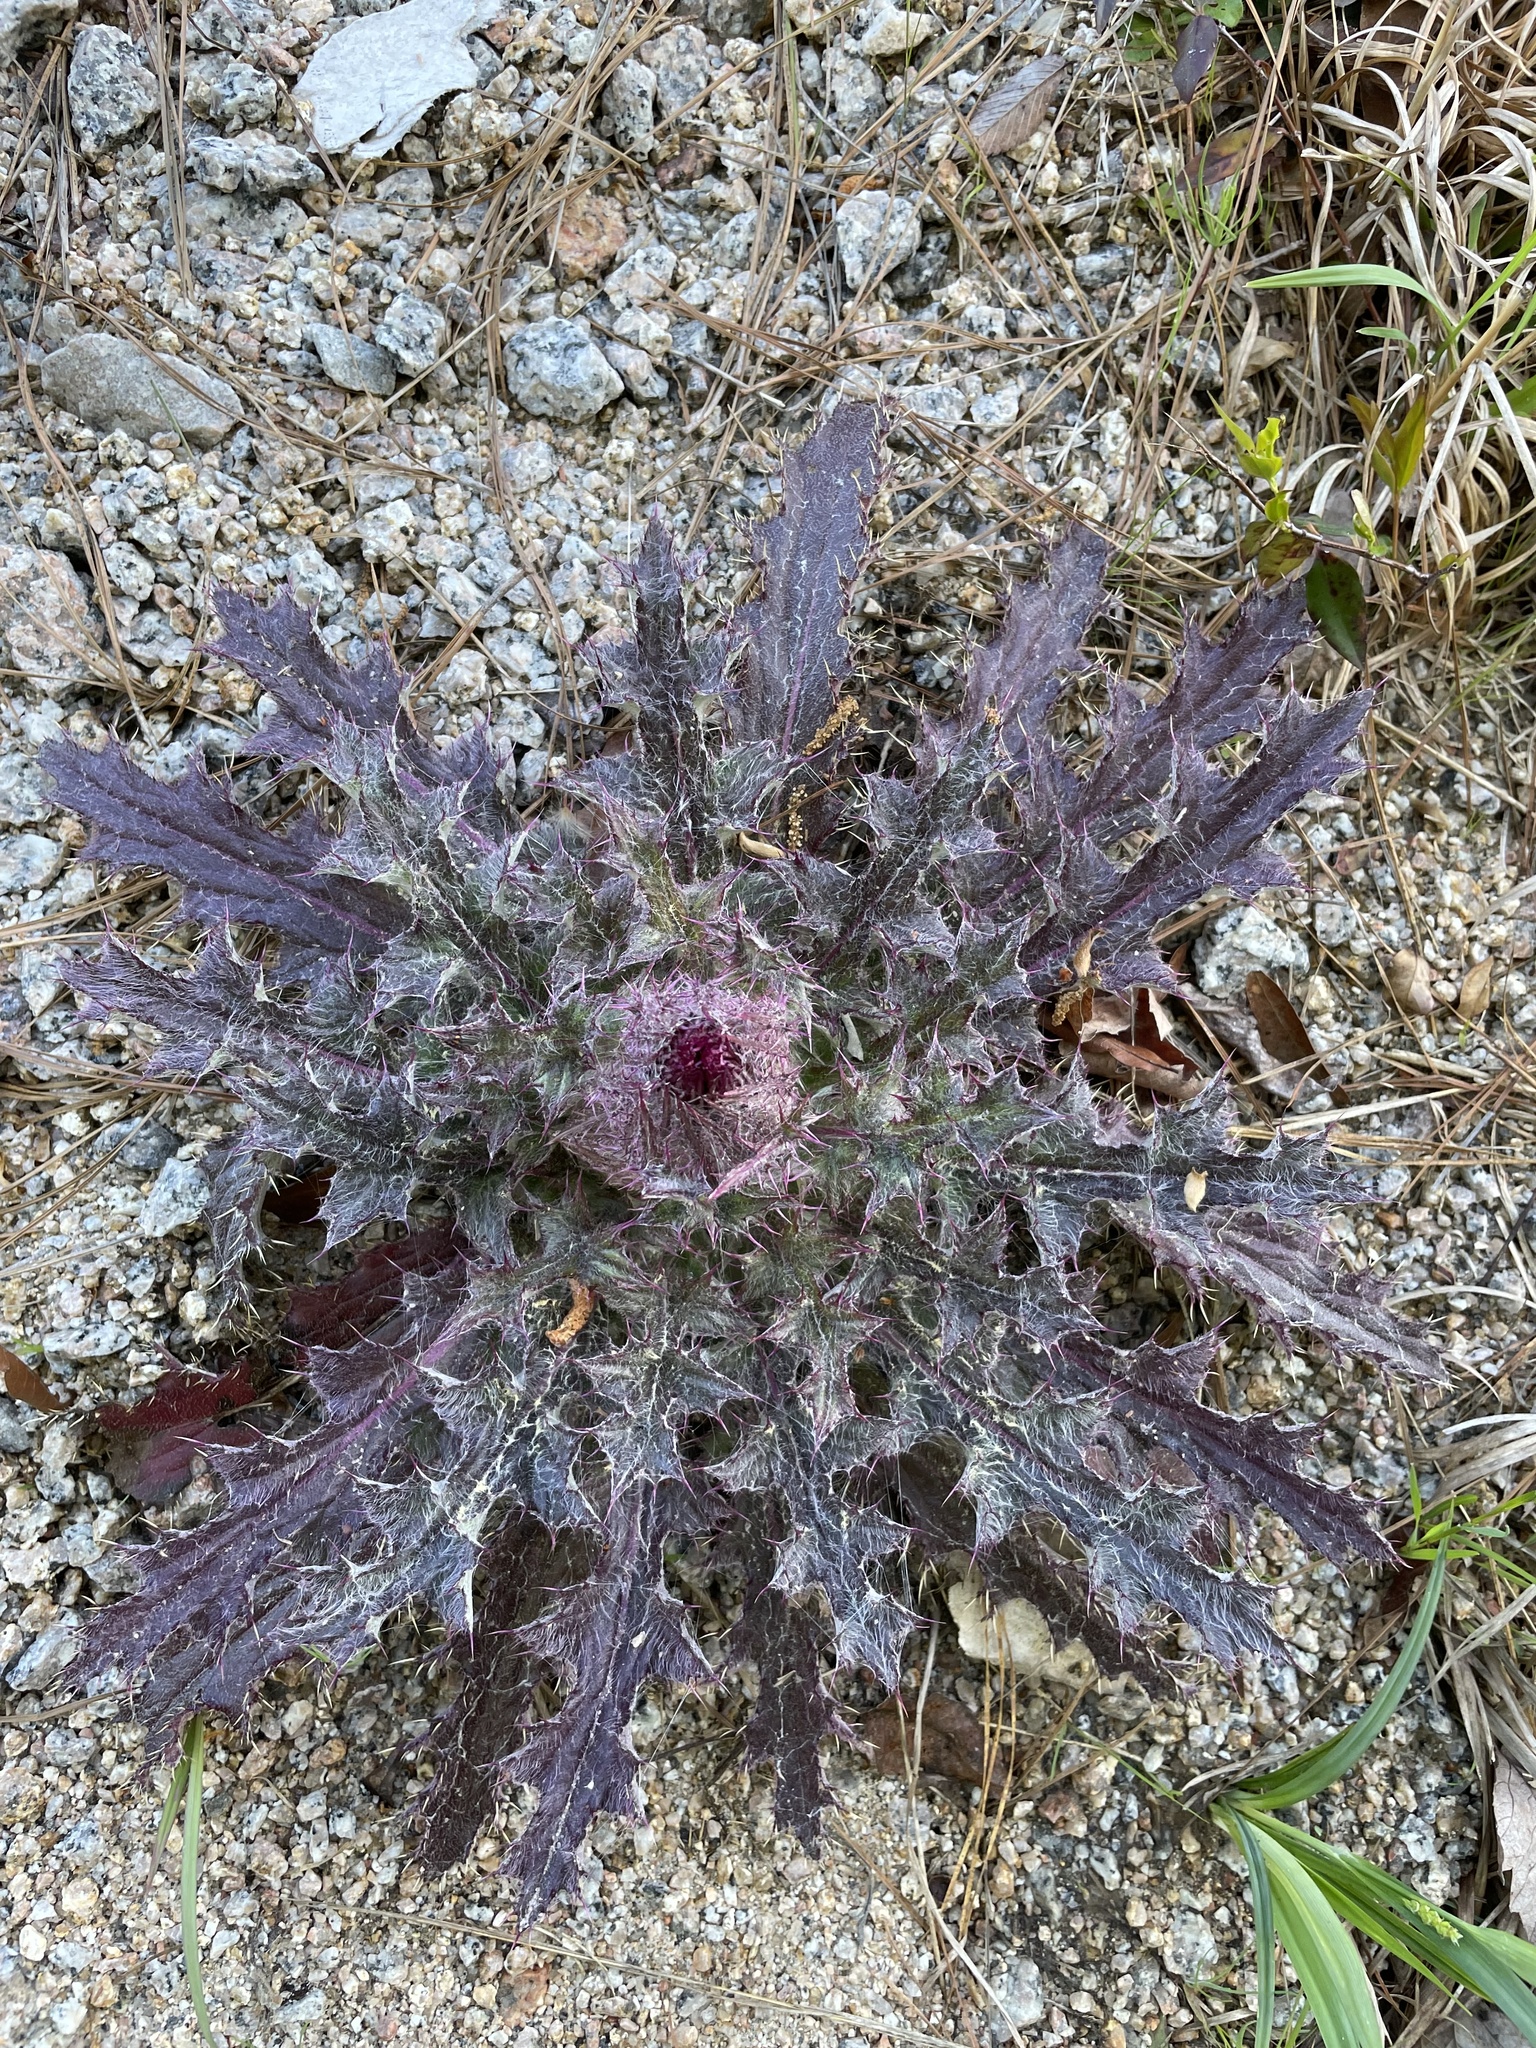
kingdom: Plantae
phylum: Tracheophyta
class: Magnoliopsida
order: Asterales
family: Asteraceae
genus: Cirsium
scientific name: Cirsium horridulum
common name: Bristly thistle
